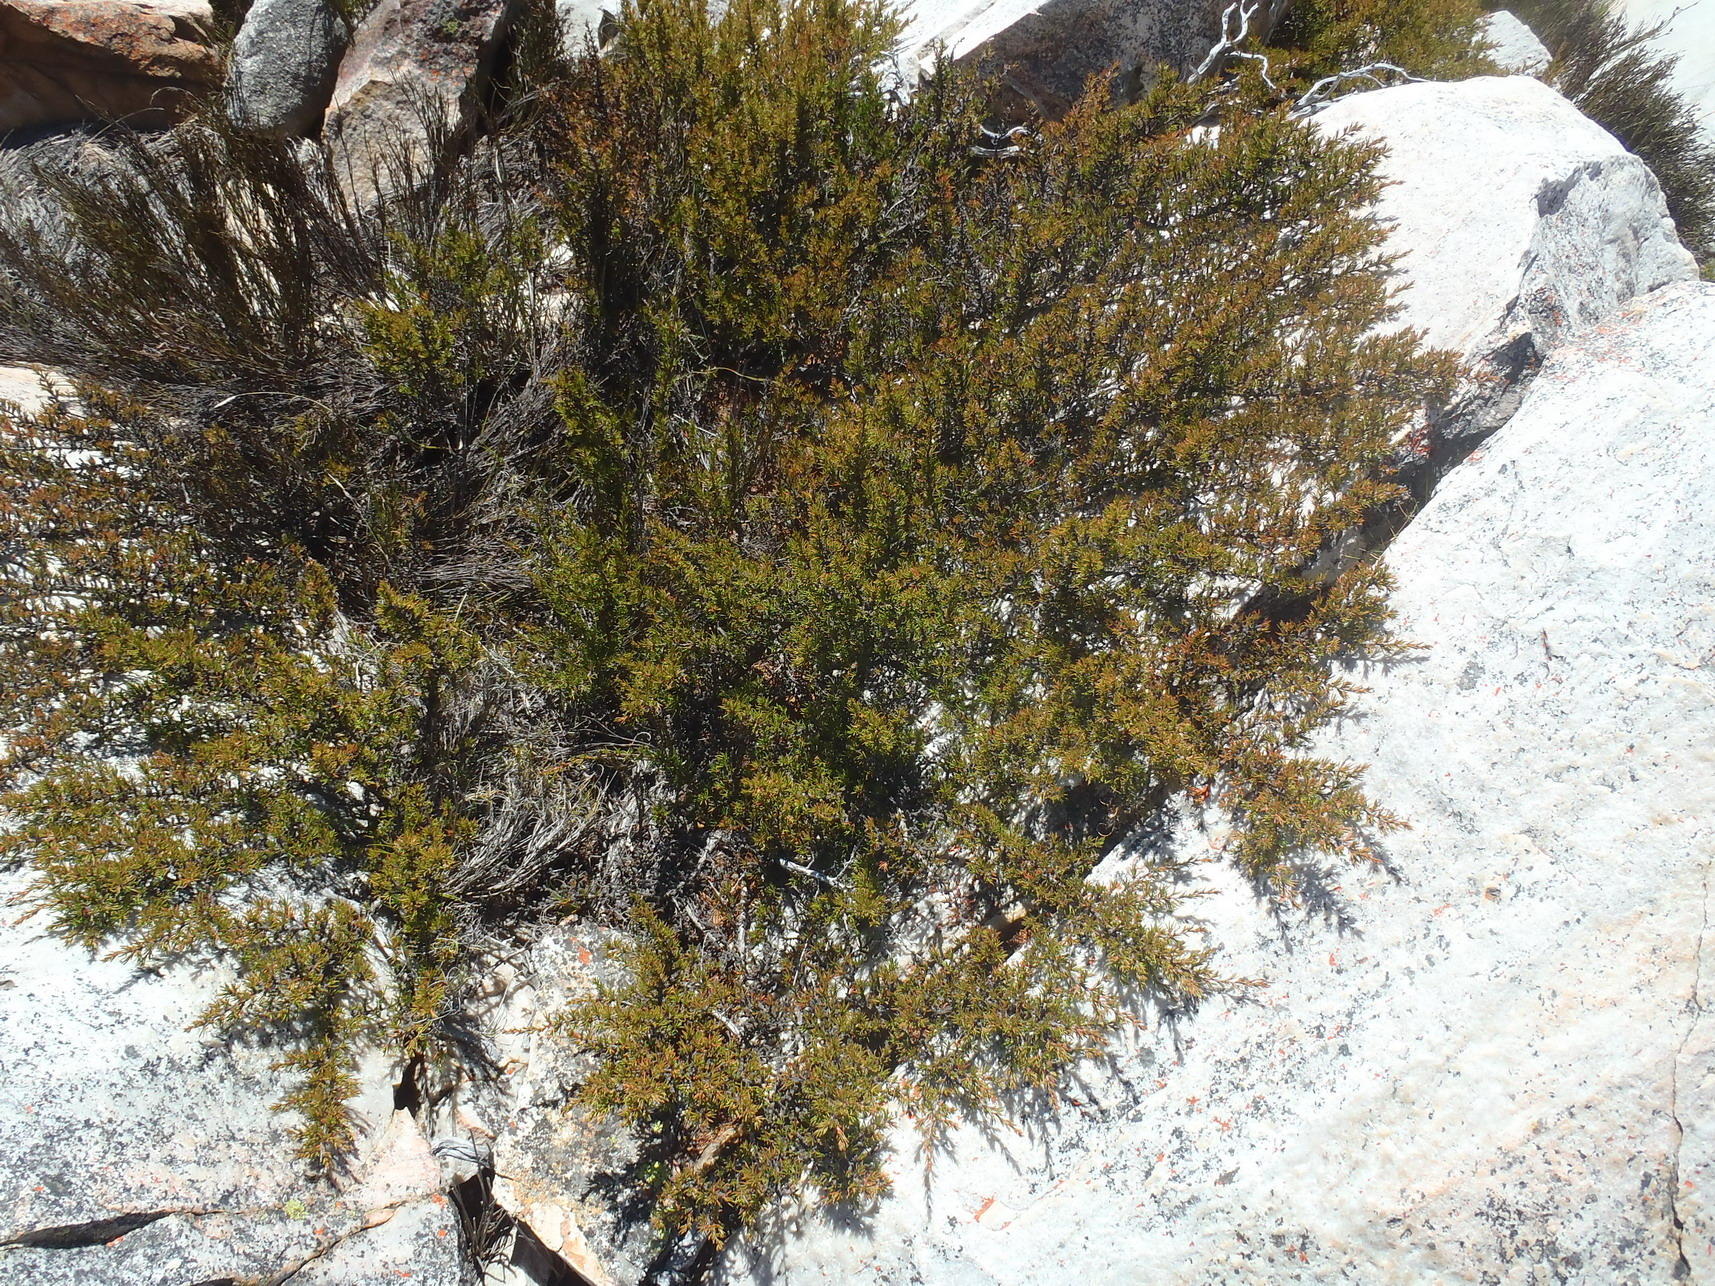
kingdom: Plantae
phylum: Tracheophyta
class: Magnoliopsida
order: Rosales
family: Rosaceae
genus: Cliffortia
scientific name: Cliffortia neglecta
